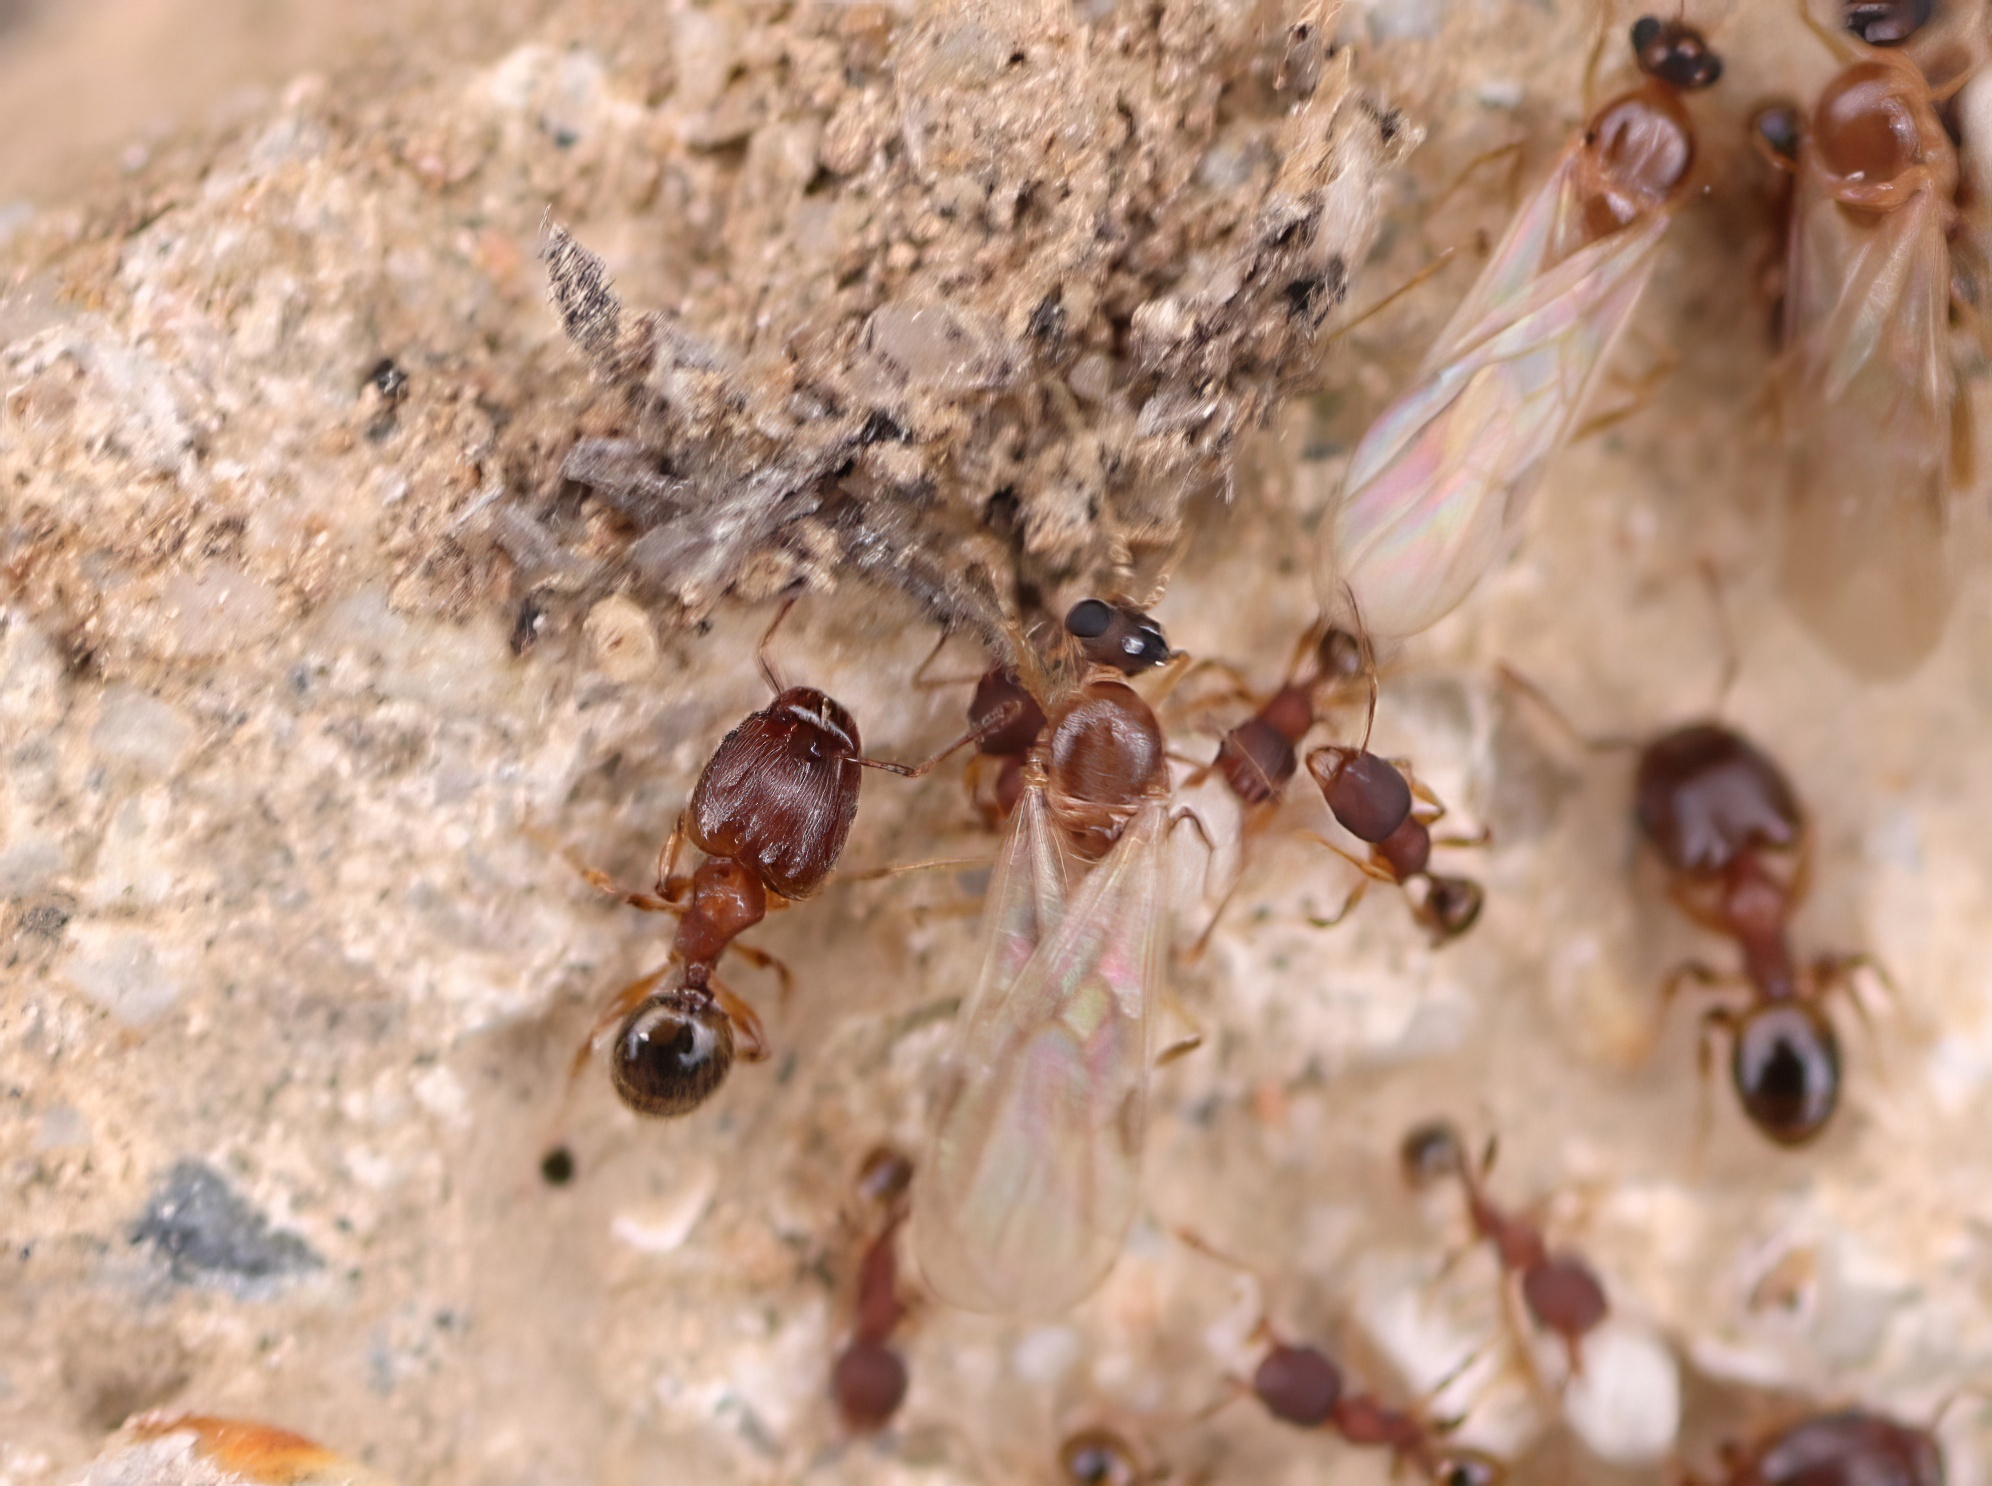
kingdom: Animalia
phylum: Arthropoda
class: Insecta
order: Hymenoptera
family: Formicidae
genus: Pheidole
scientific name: Pheidole navigans
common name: Navigating big-headed ant
